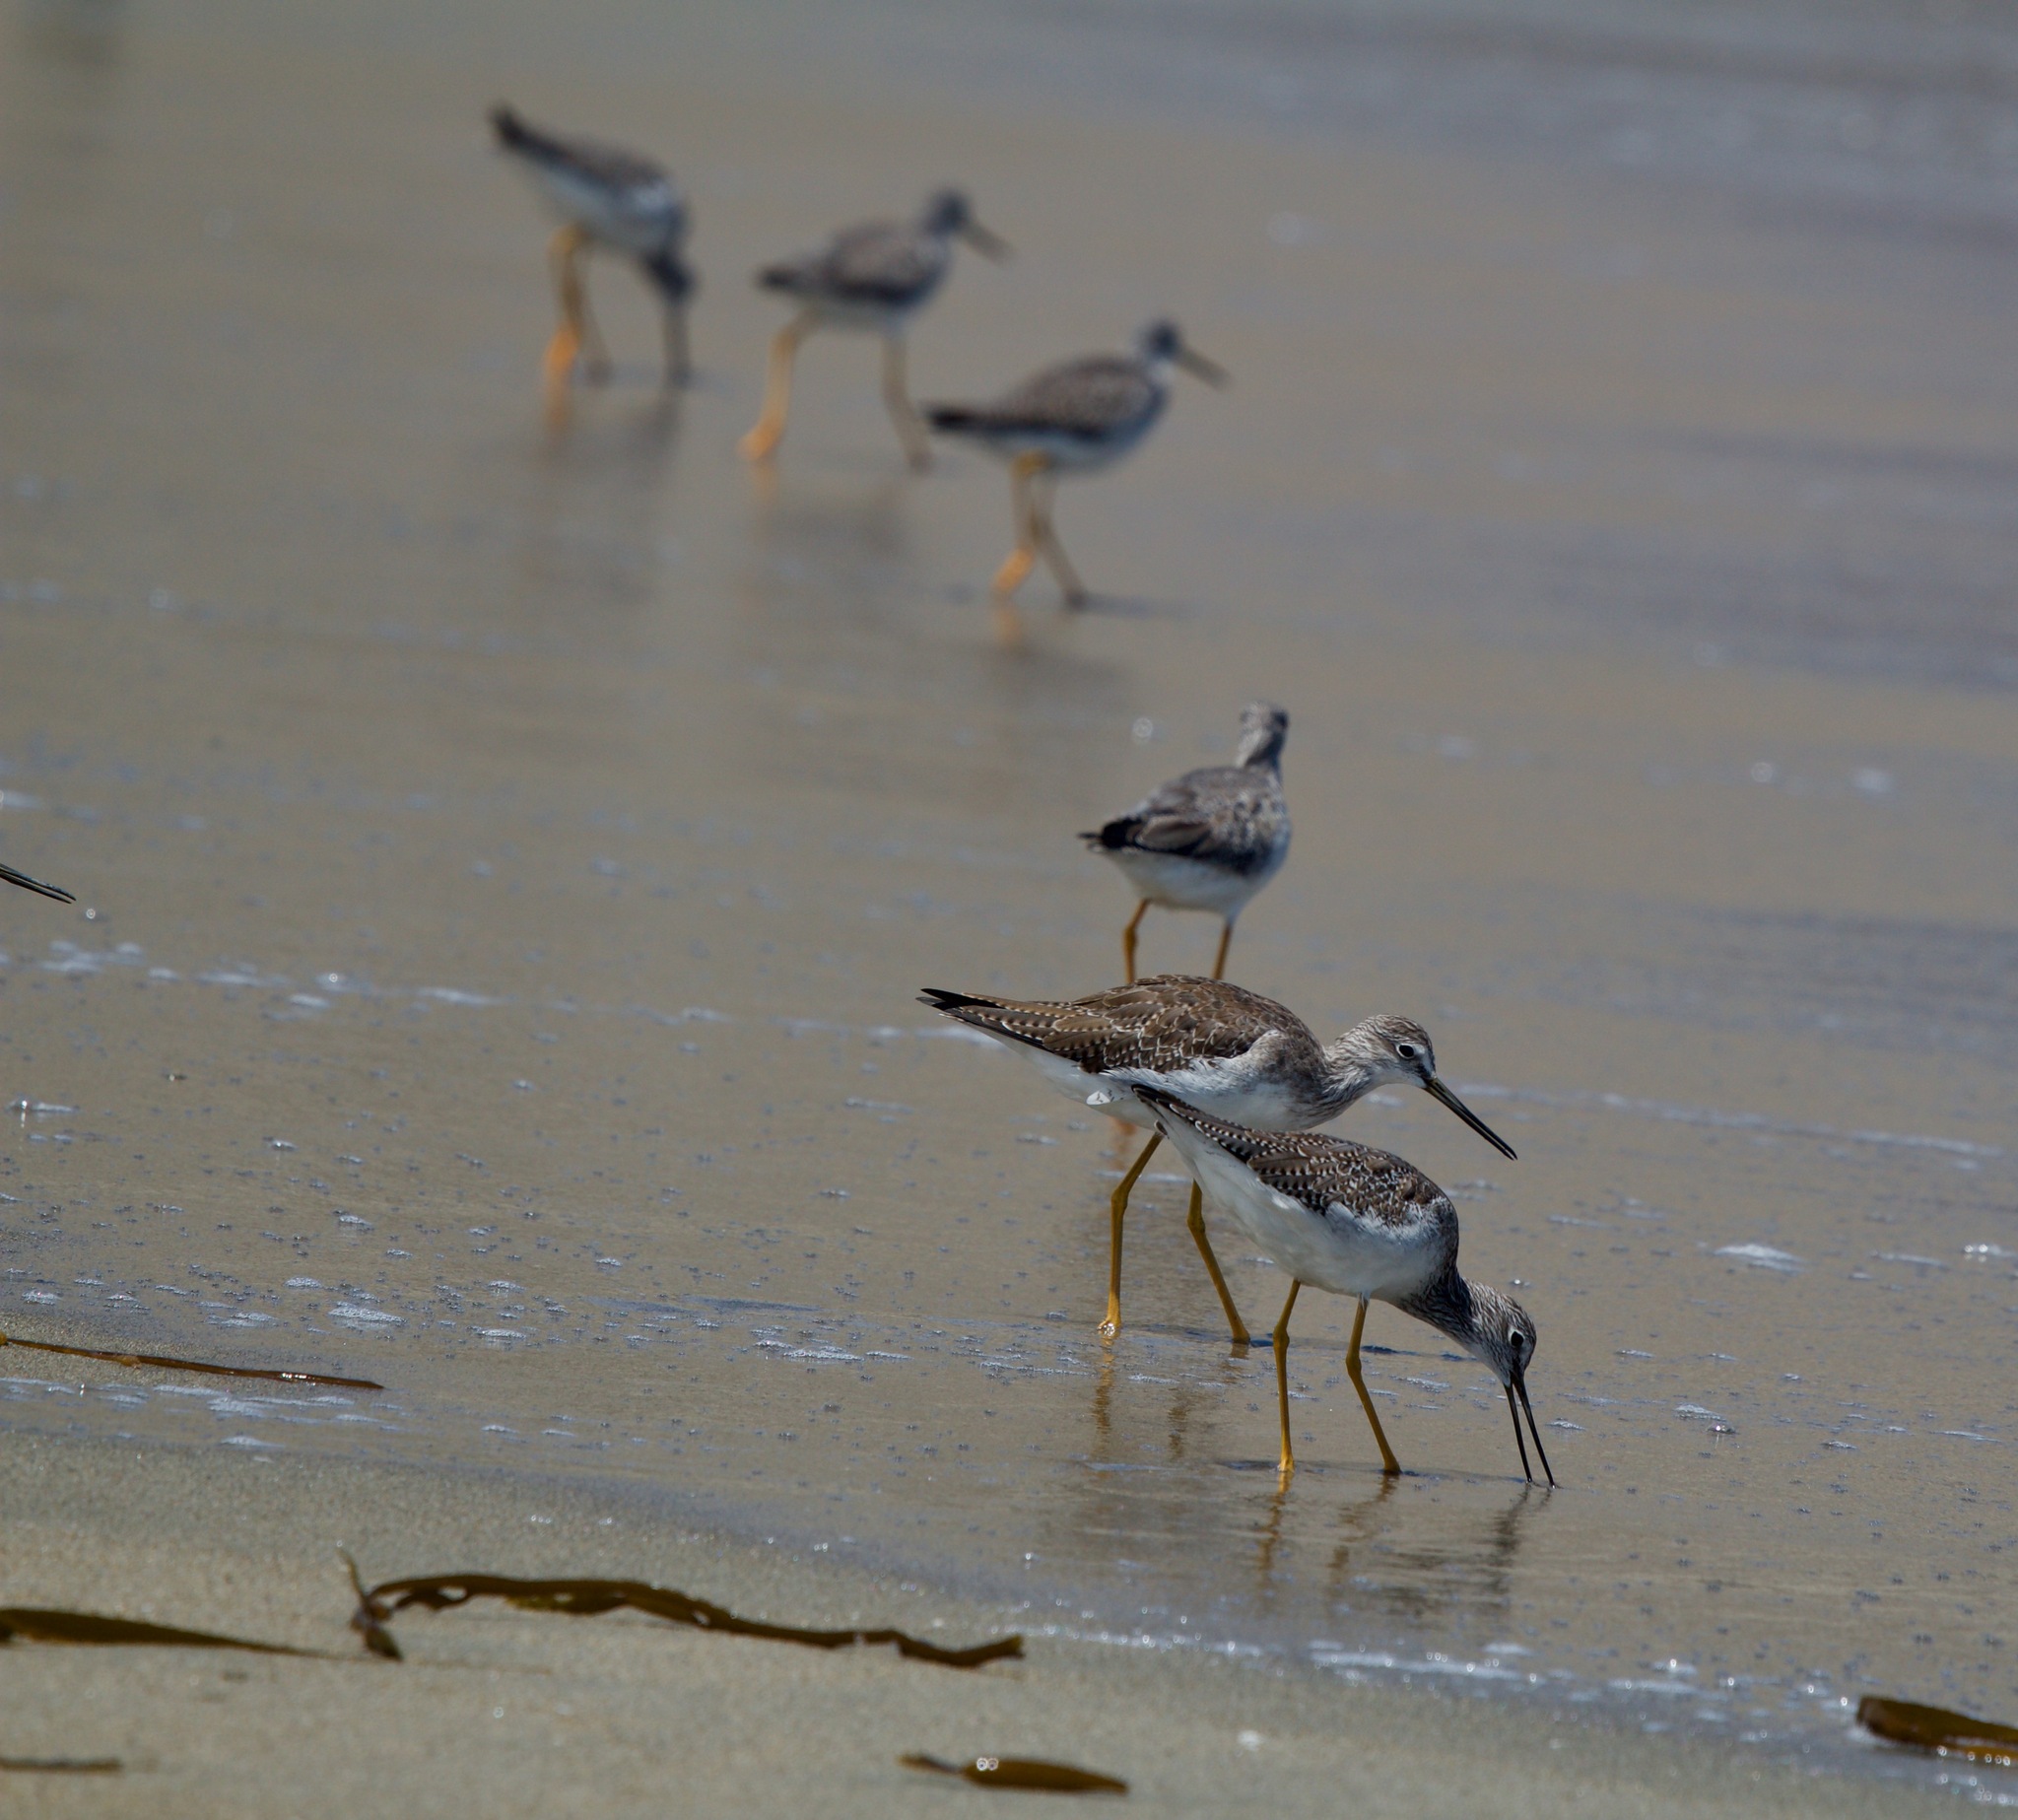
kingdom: Animalia
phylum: Chordata
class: Aves
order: Charadriiformes
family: Scolopacidae
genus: Tringa
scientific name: Tringa melanoleuca
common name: Greater yellowlegs
